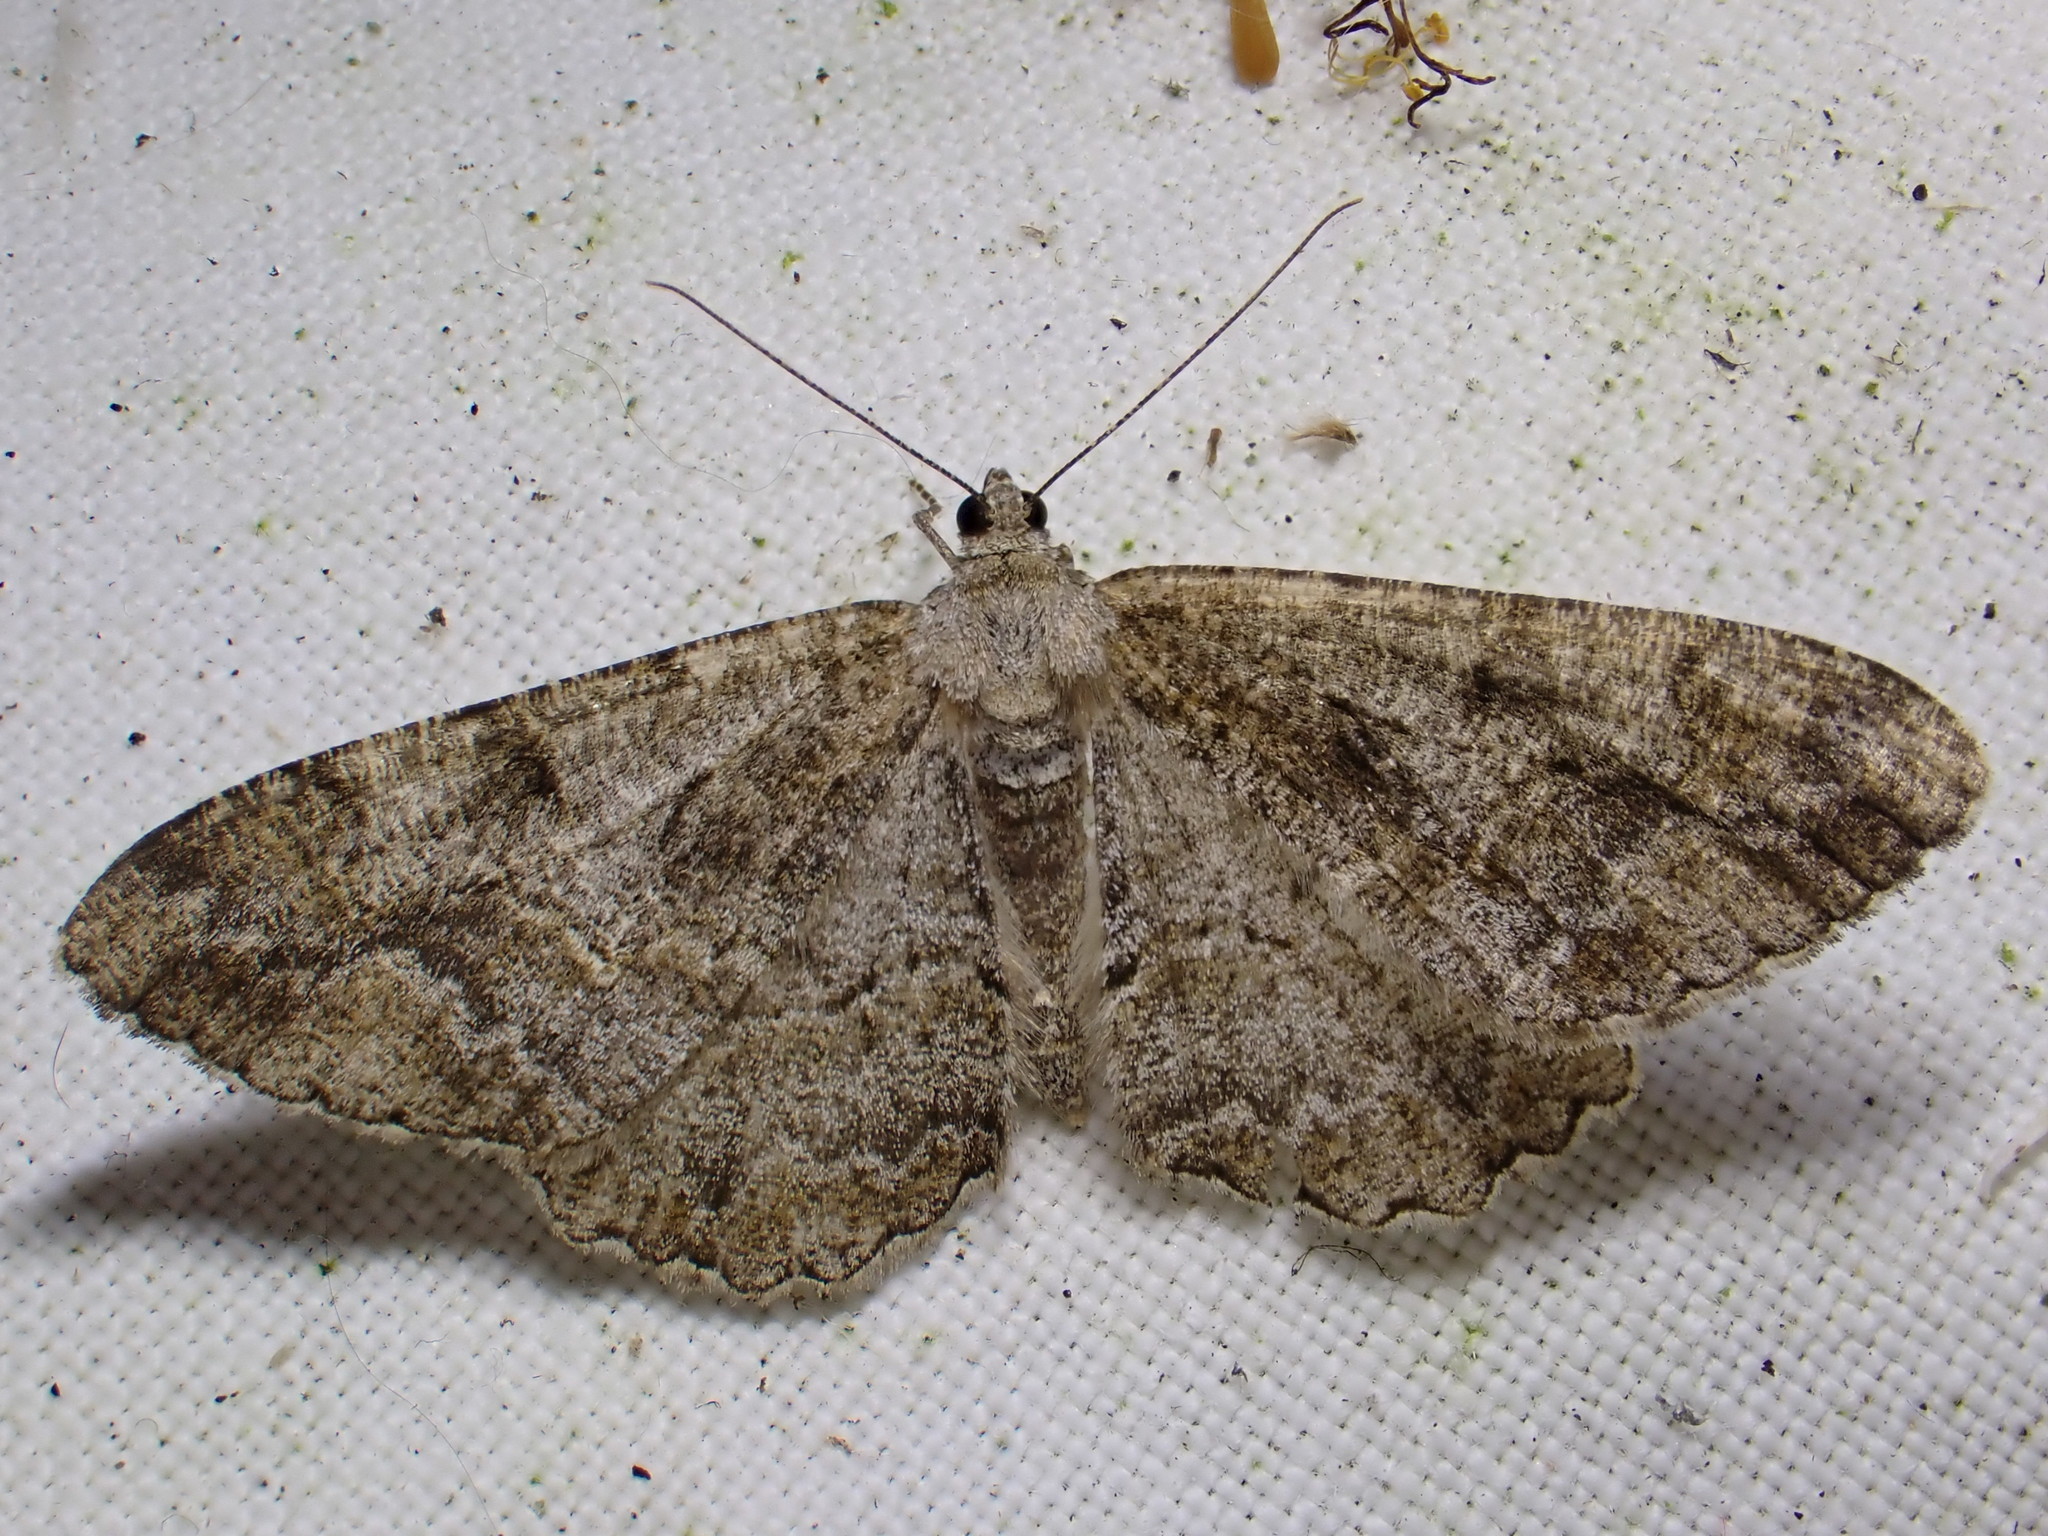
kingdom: Animalia
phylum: Arthropoda
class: Insecta
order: Lepidoptera
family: Geometridae
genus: Alcis
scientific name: Alcis repandata
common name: Mottled beauty
